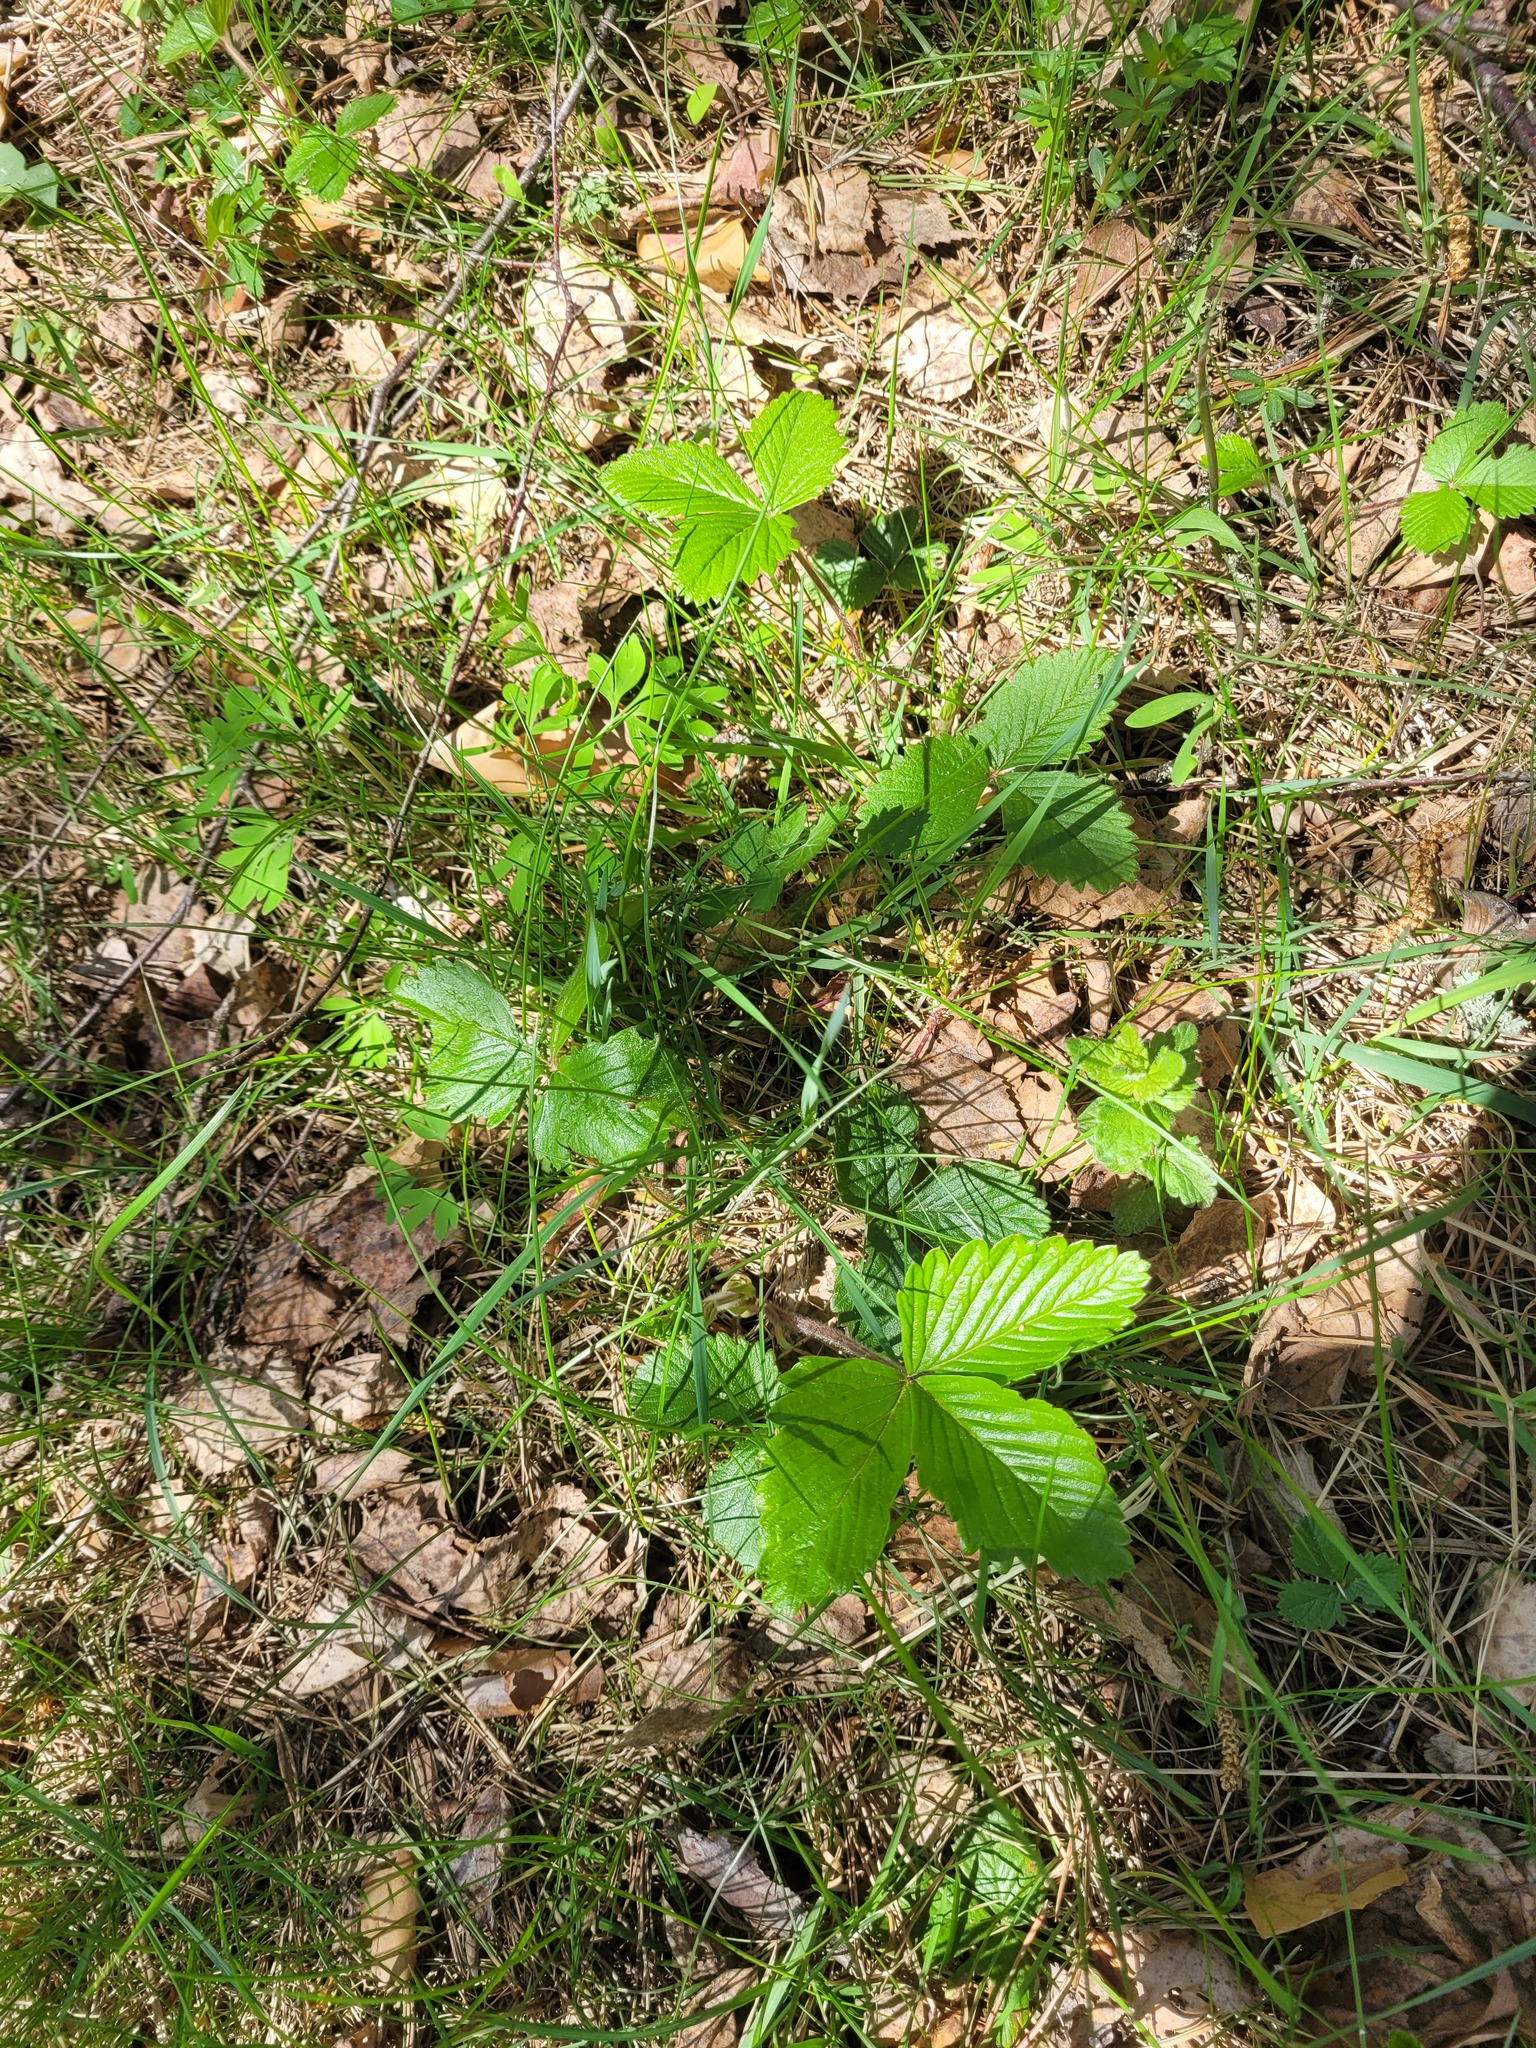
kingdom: Plantae
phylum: Tracheophyta
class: Magnoliopsida
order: Rosales
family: Rosaceae
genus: Fragaria
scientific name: Fragaria vesca
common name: Wild strawberry
